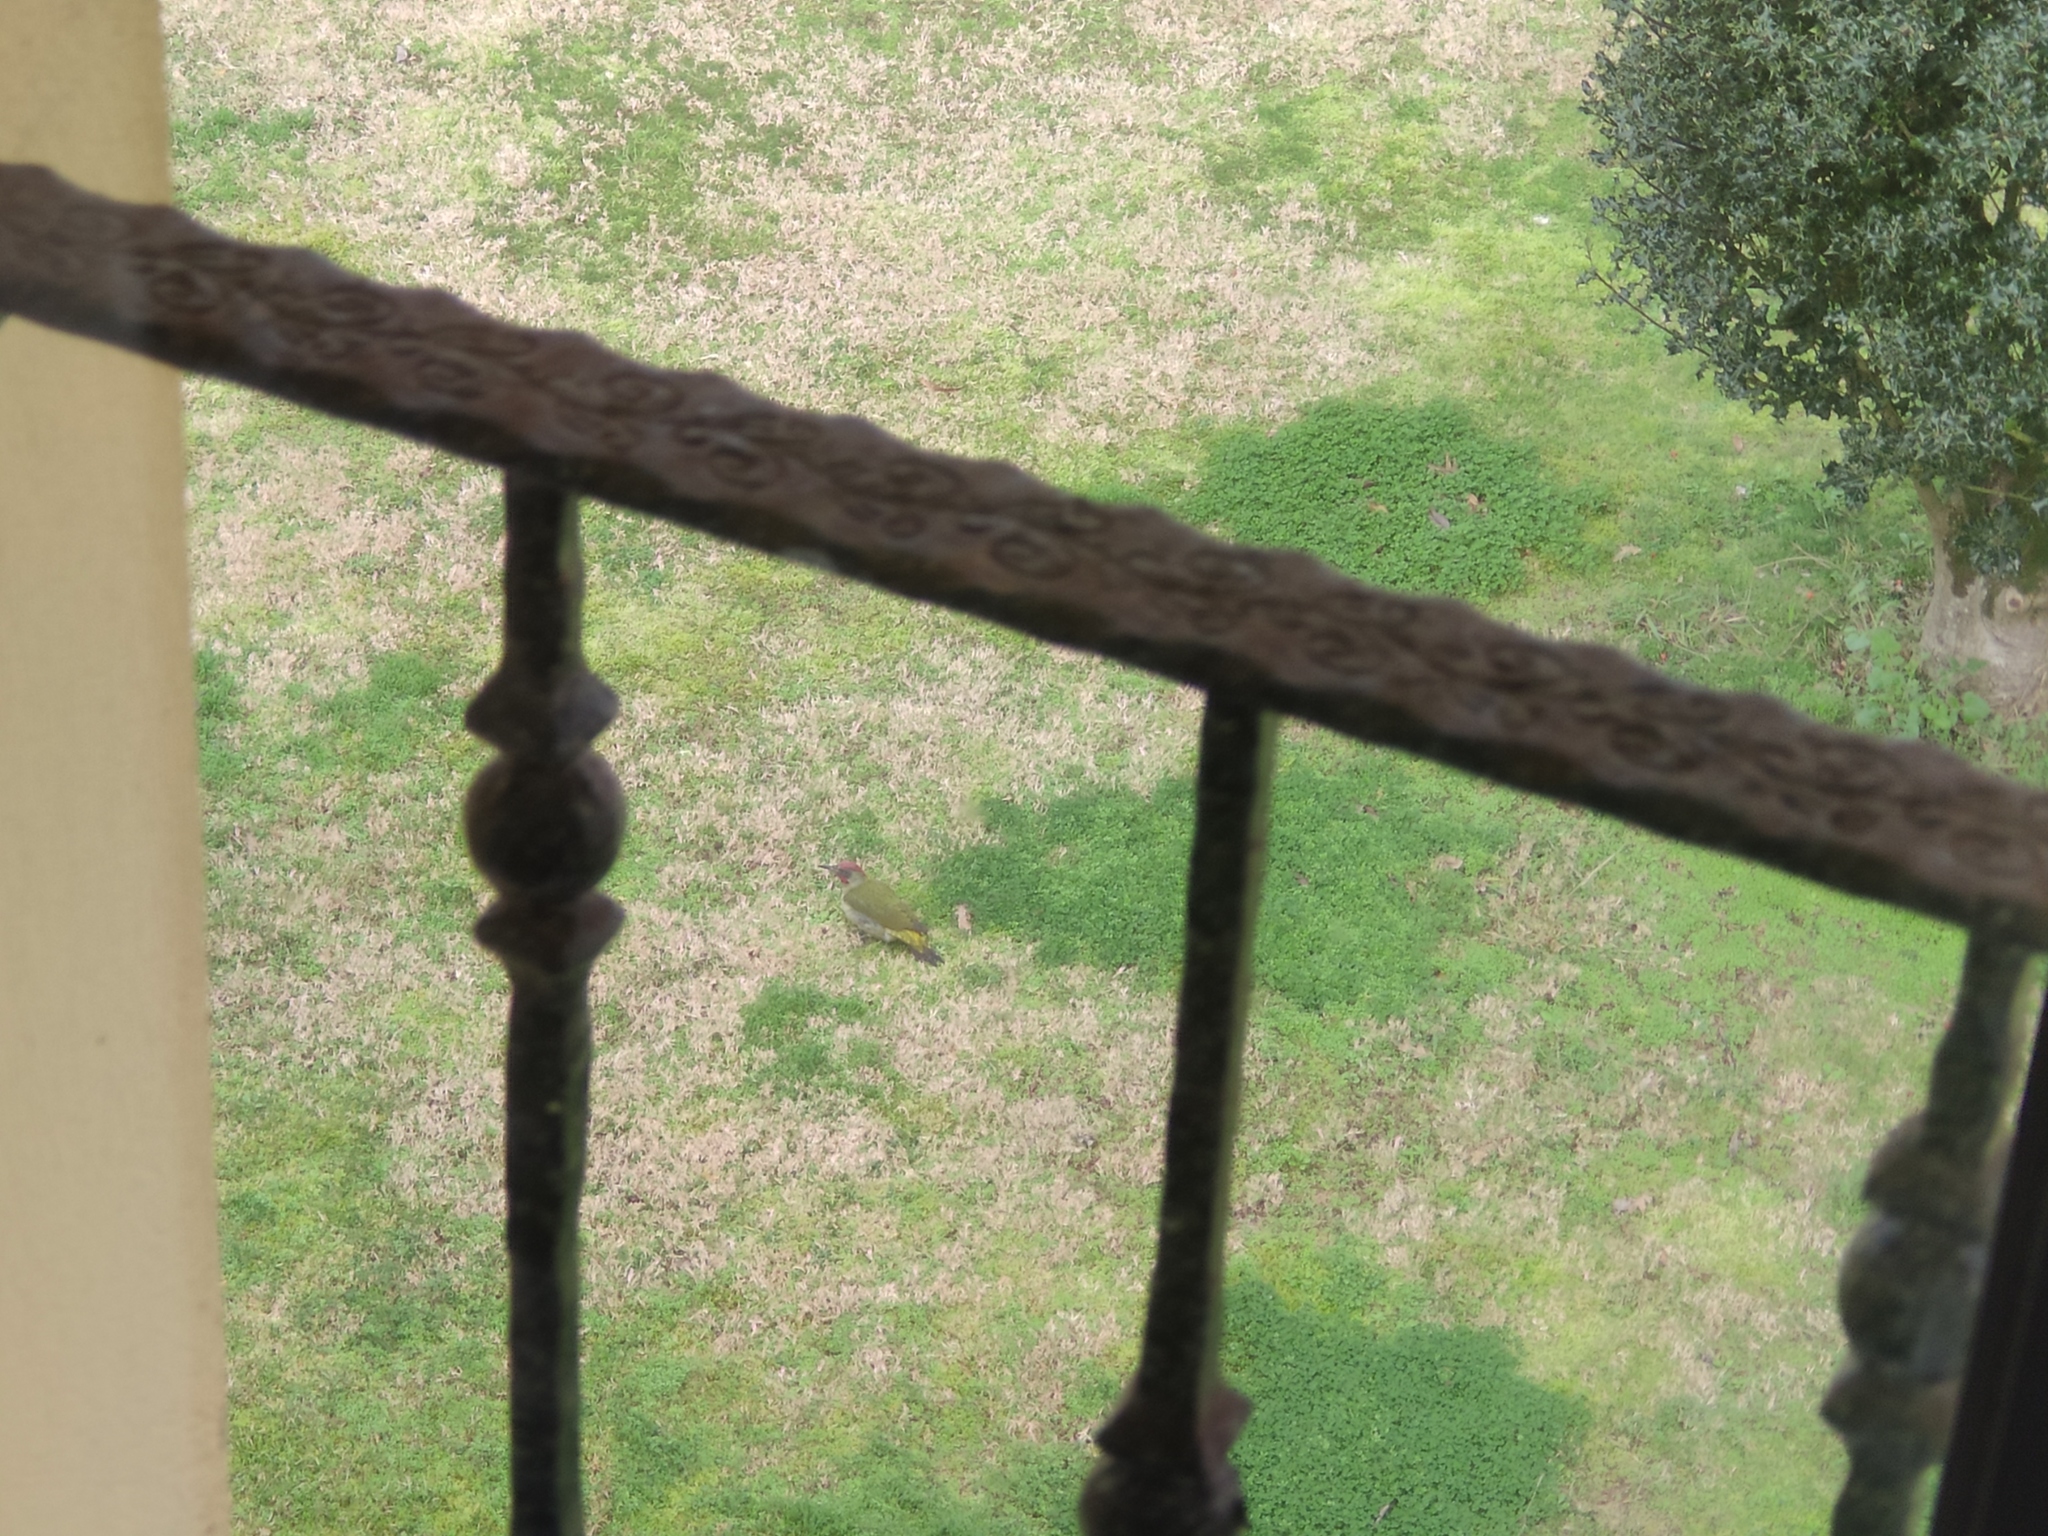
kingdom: Animalia
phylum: Chordata
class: Aves
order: Piciformes
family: Picidae
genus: Picus
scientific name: Picus sharpei
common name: Iberian green woodpecker
